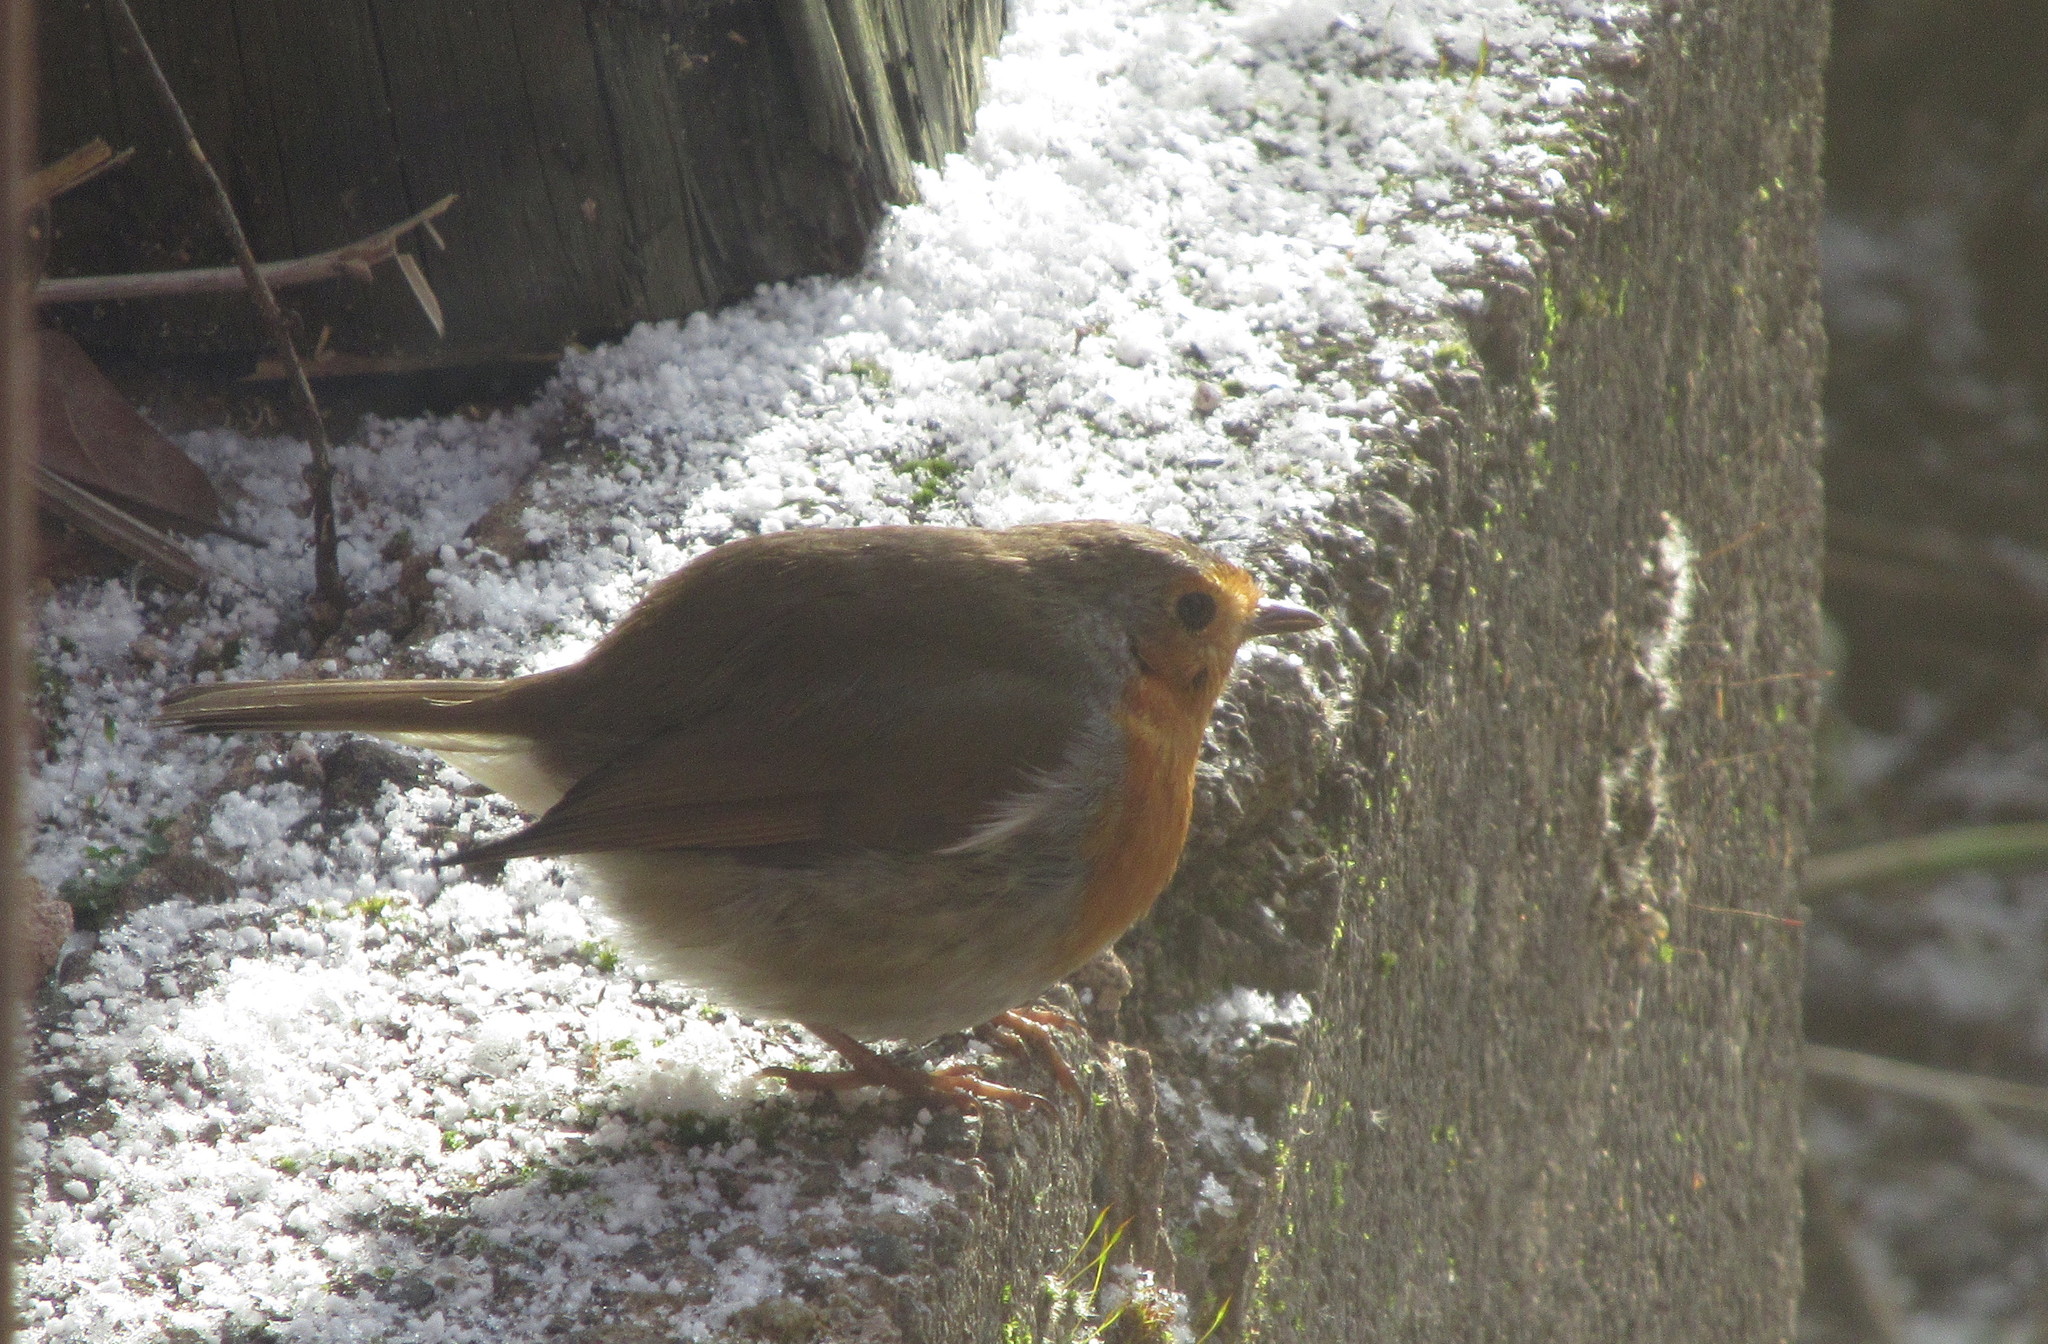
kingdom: Animalia
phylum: Chordata
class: Aves
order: Passeriformes
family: Muscicapidae
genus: Erithacus
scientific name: Erithacus rubecula
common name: European robin
